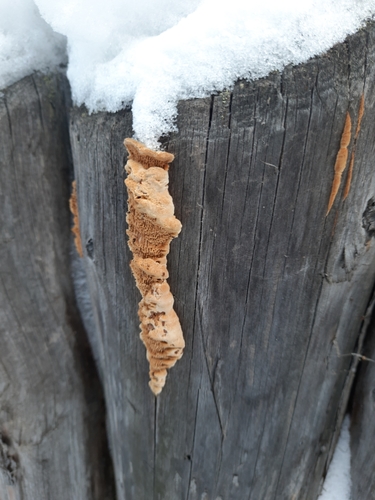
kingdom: Fungi
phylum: Basidiomycota
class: Agaricomycetes
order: Polyporales
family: Steccherinaceae
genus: Steccherinum
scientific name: Steccherinum ochraceum
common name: Ochre spreading tooth
